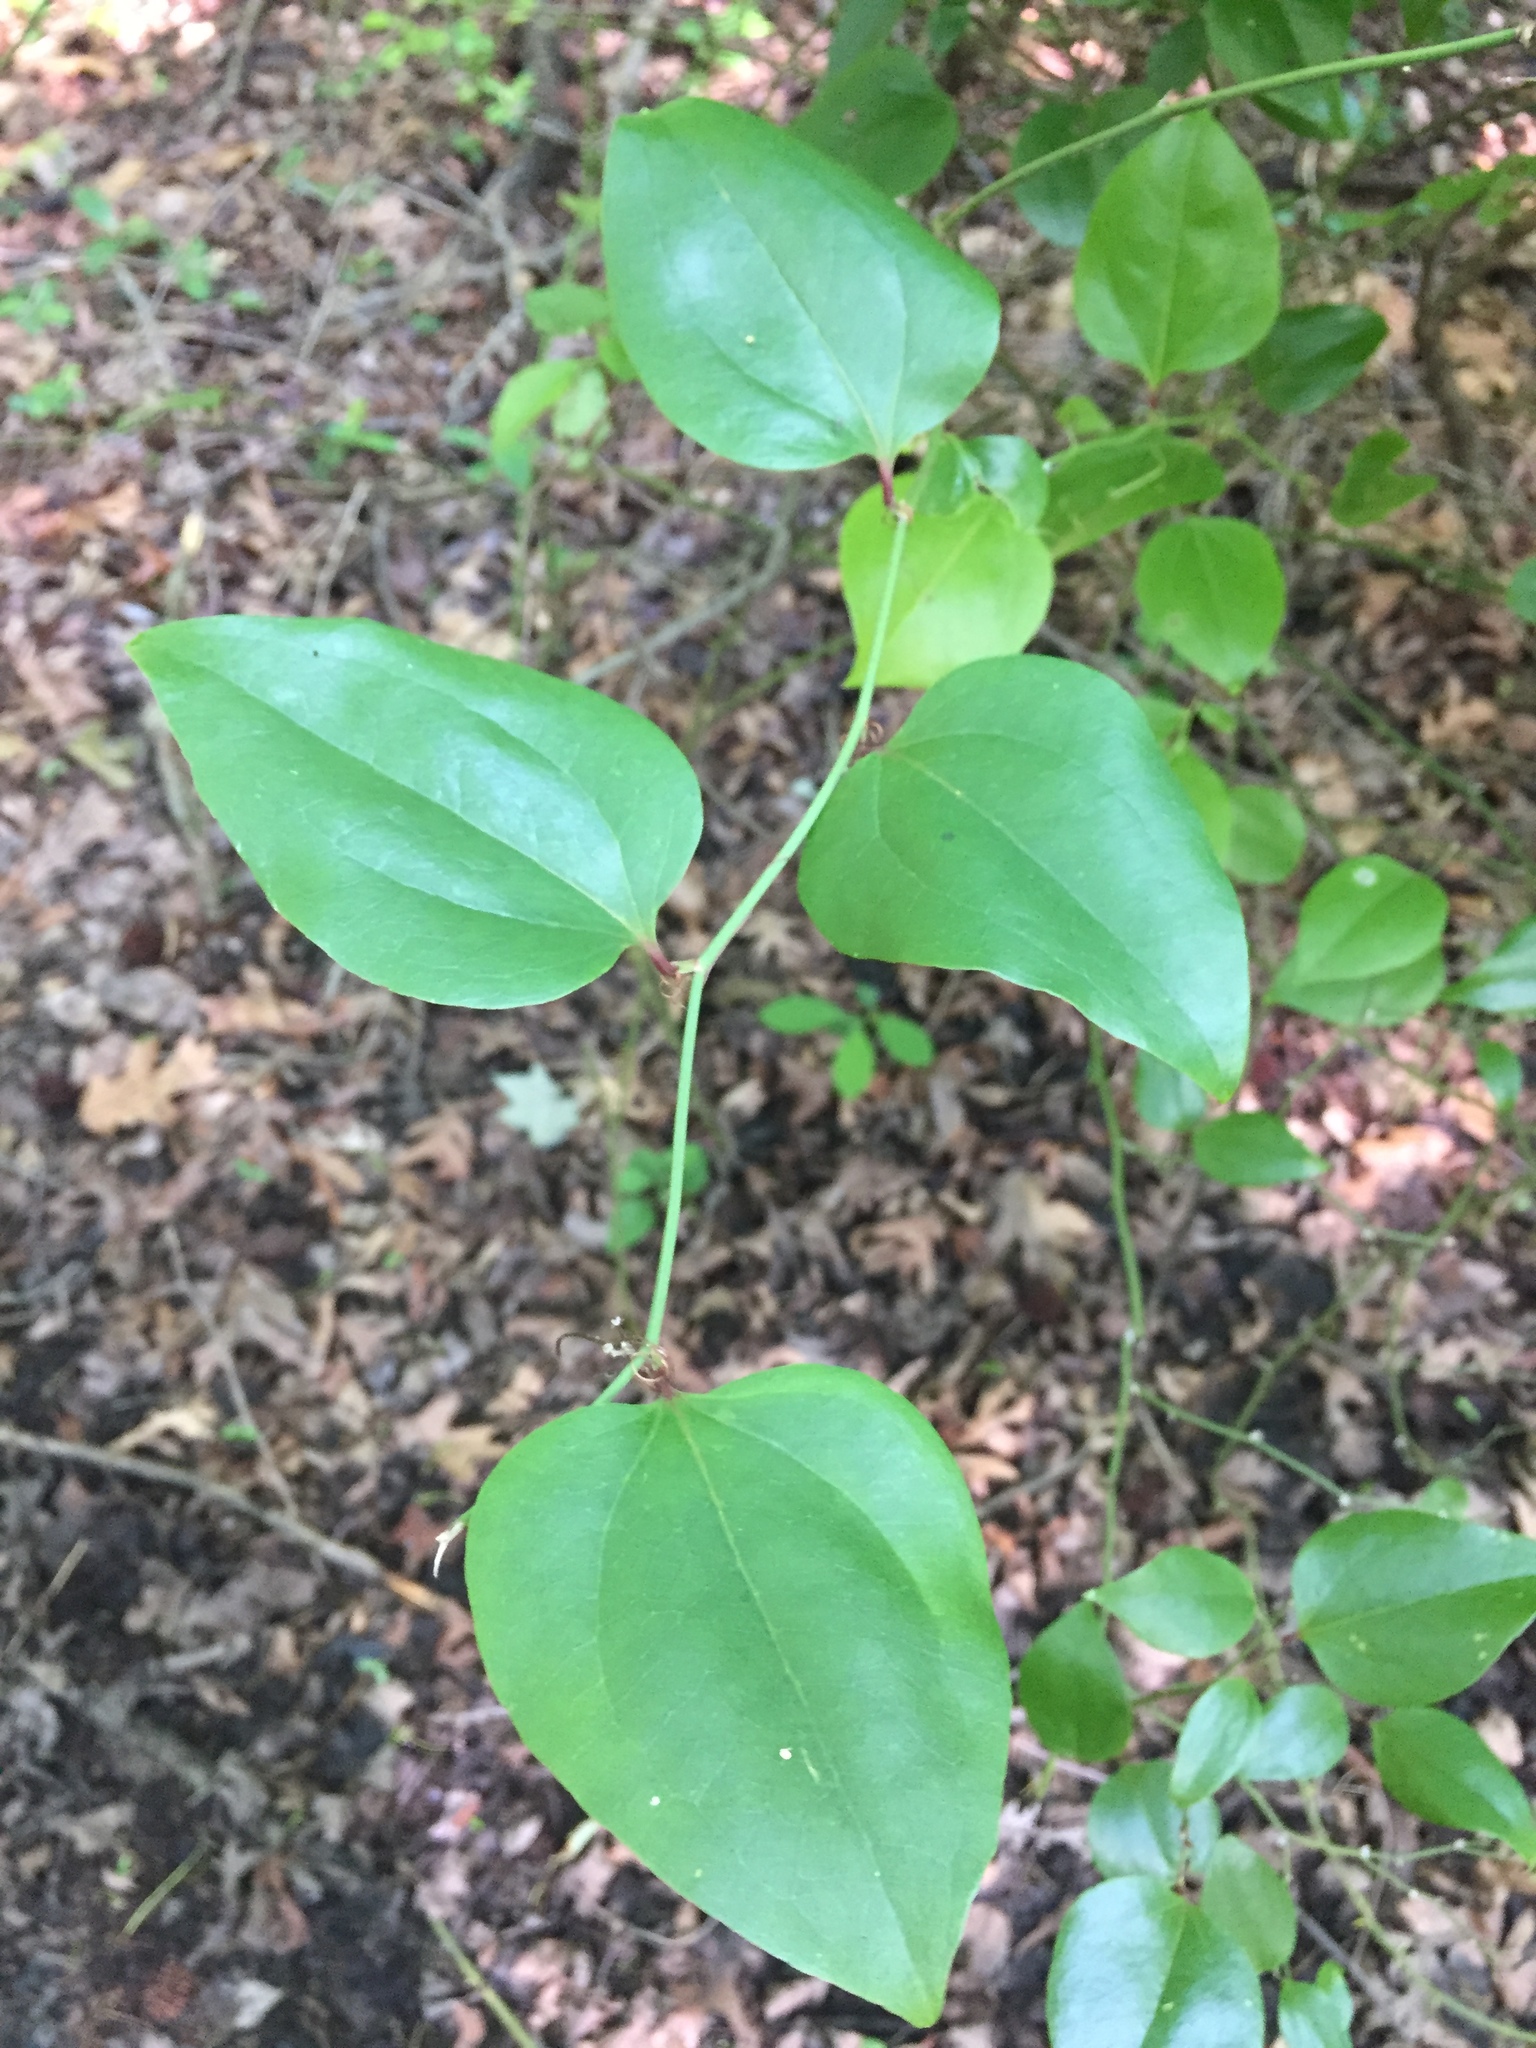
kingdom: Plantae
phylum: Tracheophyta
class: Liliopsida
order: Liliales
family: Smilacaceae
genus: Smilax
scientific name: Smilax rotundifolia
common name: Bullbriar
